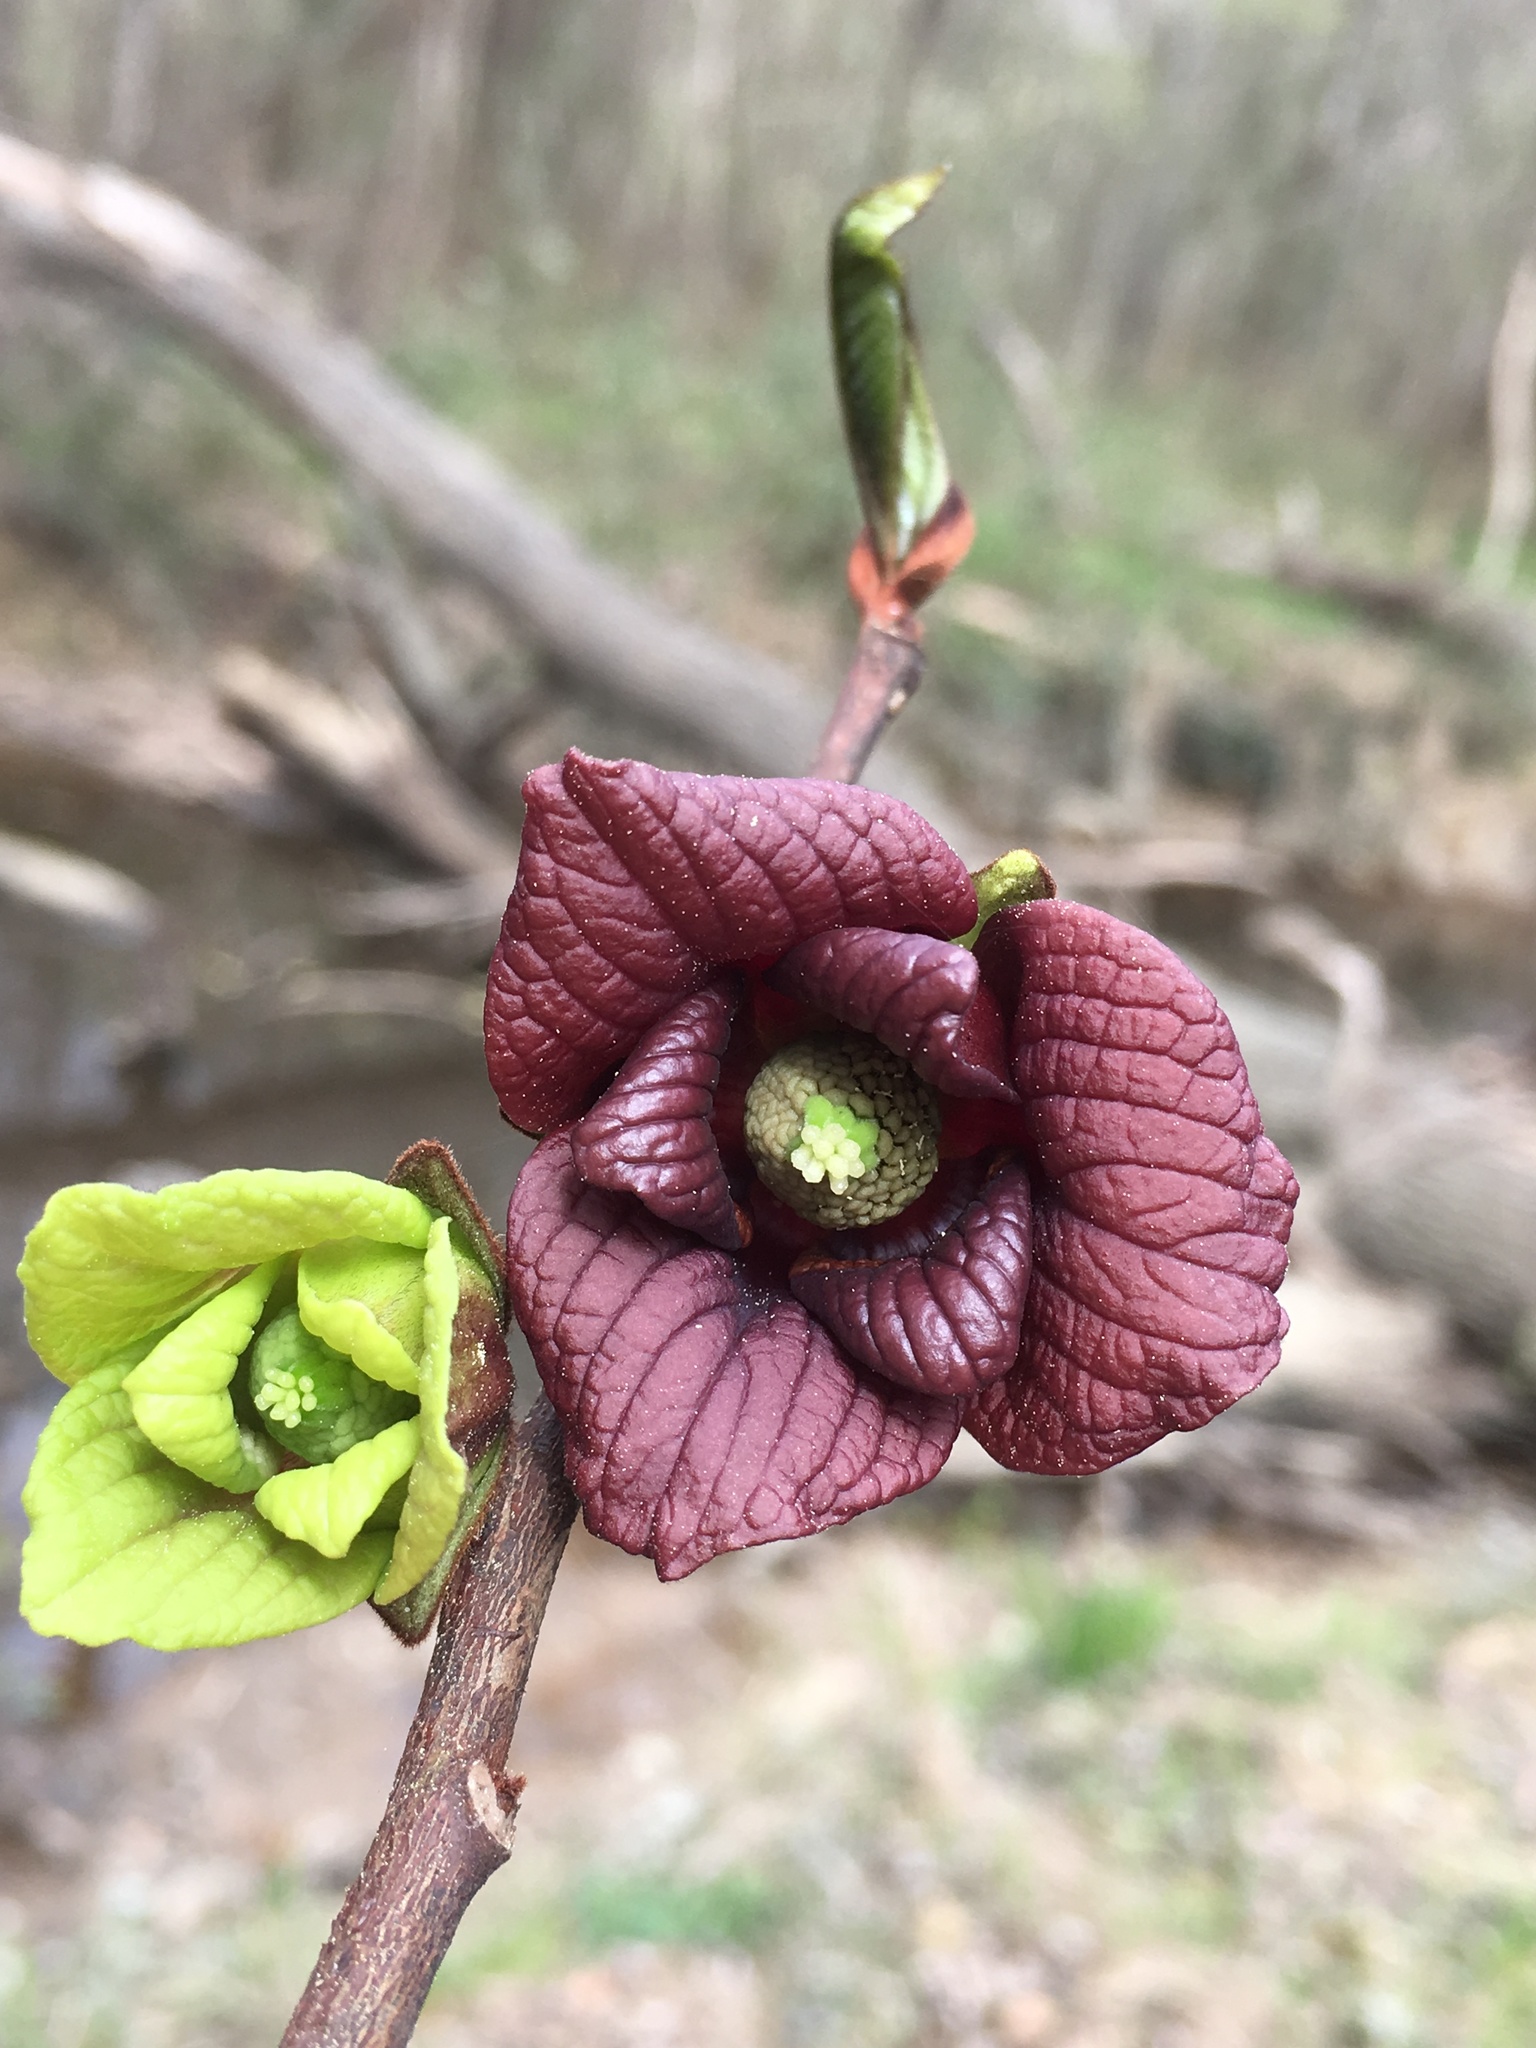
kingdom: Plantae
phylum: Tracheophyta
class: Magnoliopsida
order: Magnoliales
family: Annonaceae
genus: Asimina
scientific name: Asimina triloba
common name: Dog-banana
